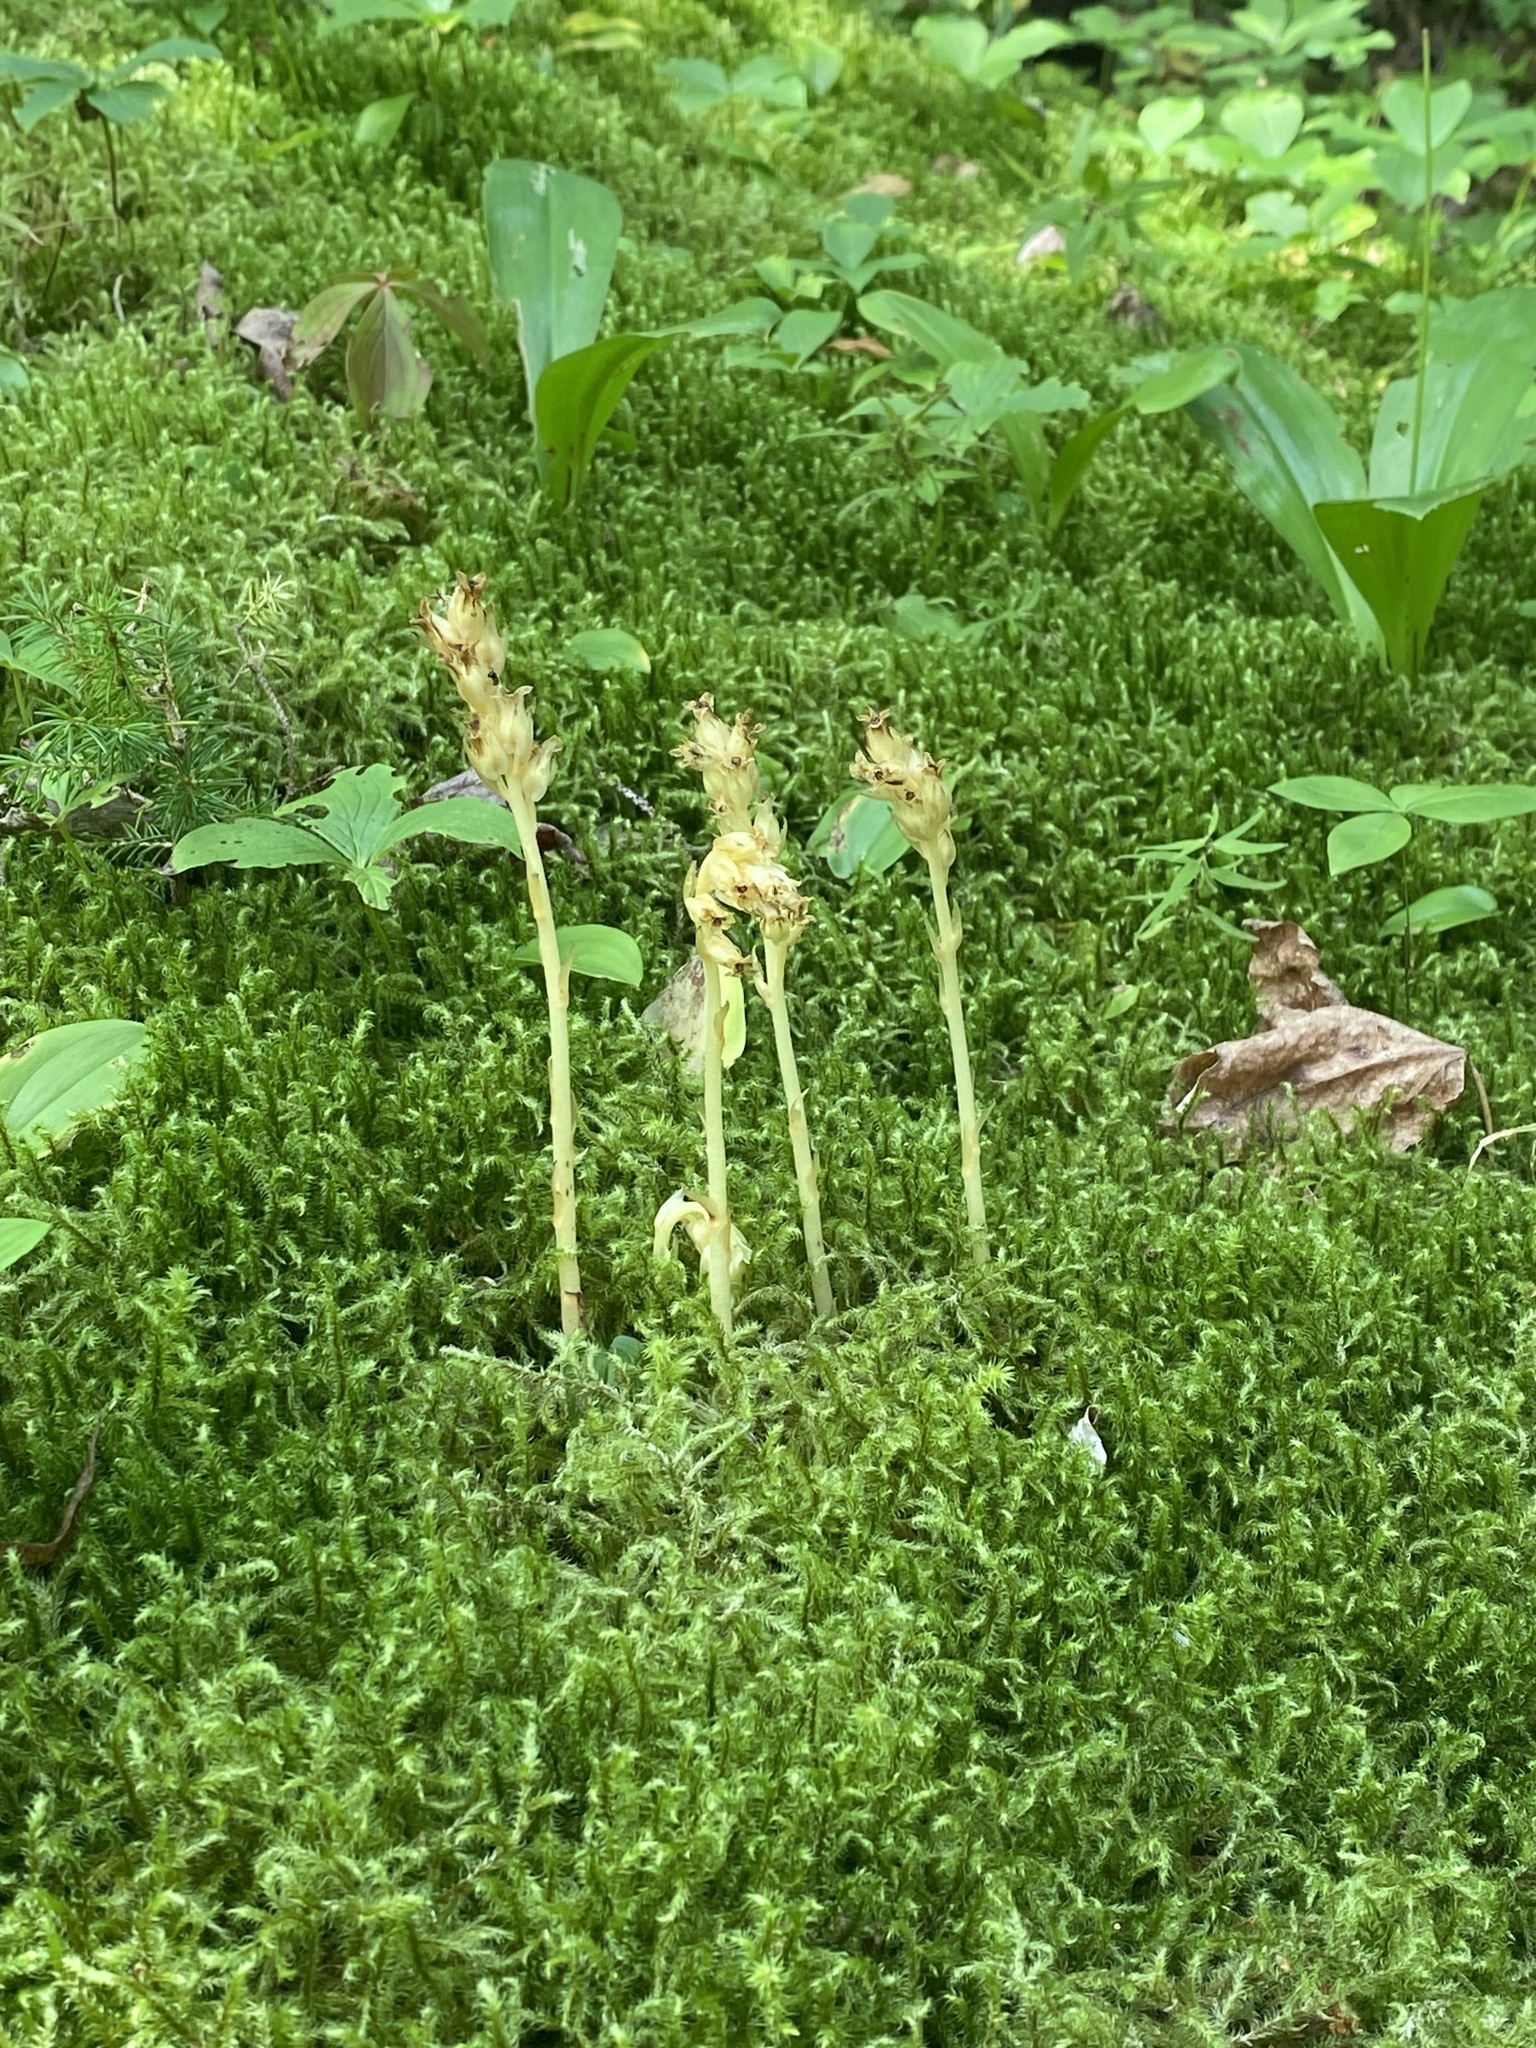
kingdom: Plantae
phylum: Tracheophyta
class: Magnoliopsida
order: Ericales
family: Ericaceae
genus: Hypopitys
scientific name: Hypopitys monotropa
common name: Yellow bird's-nest
